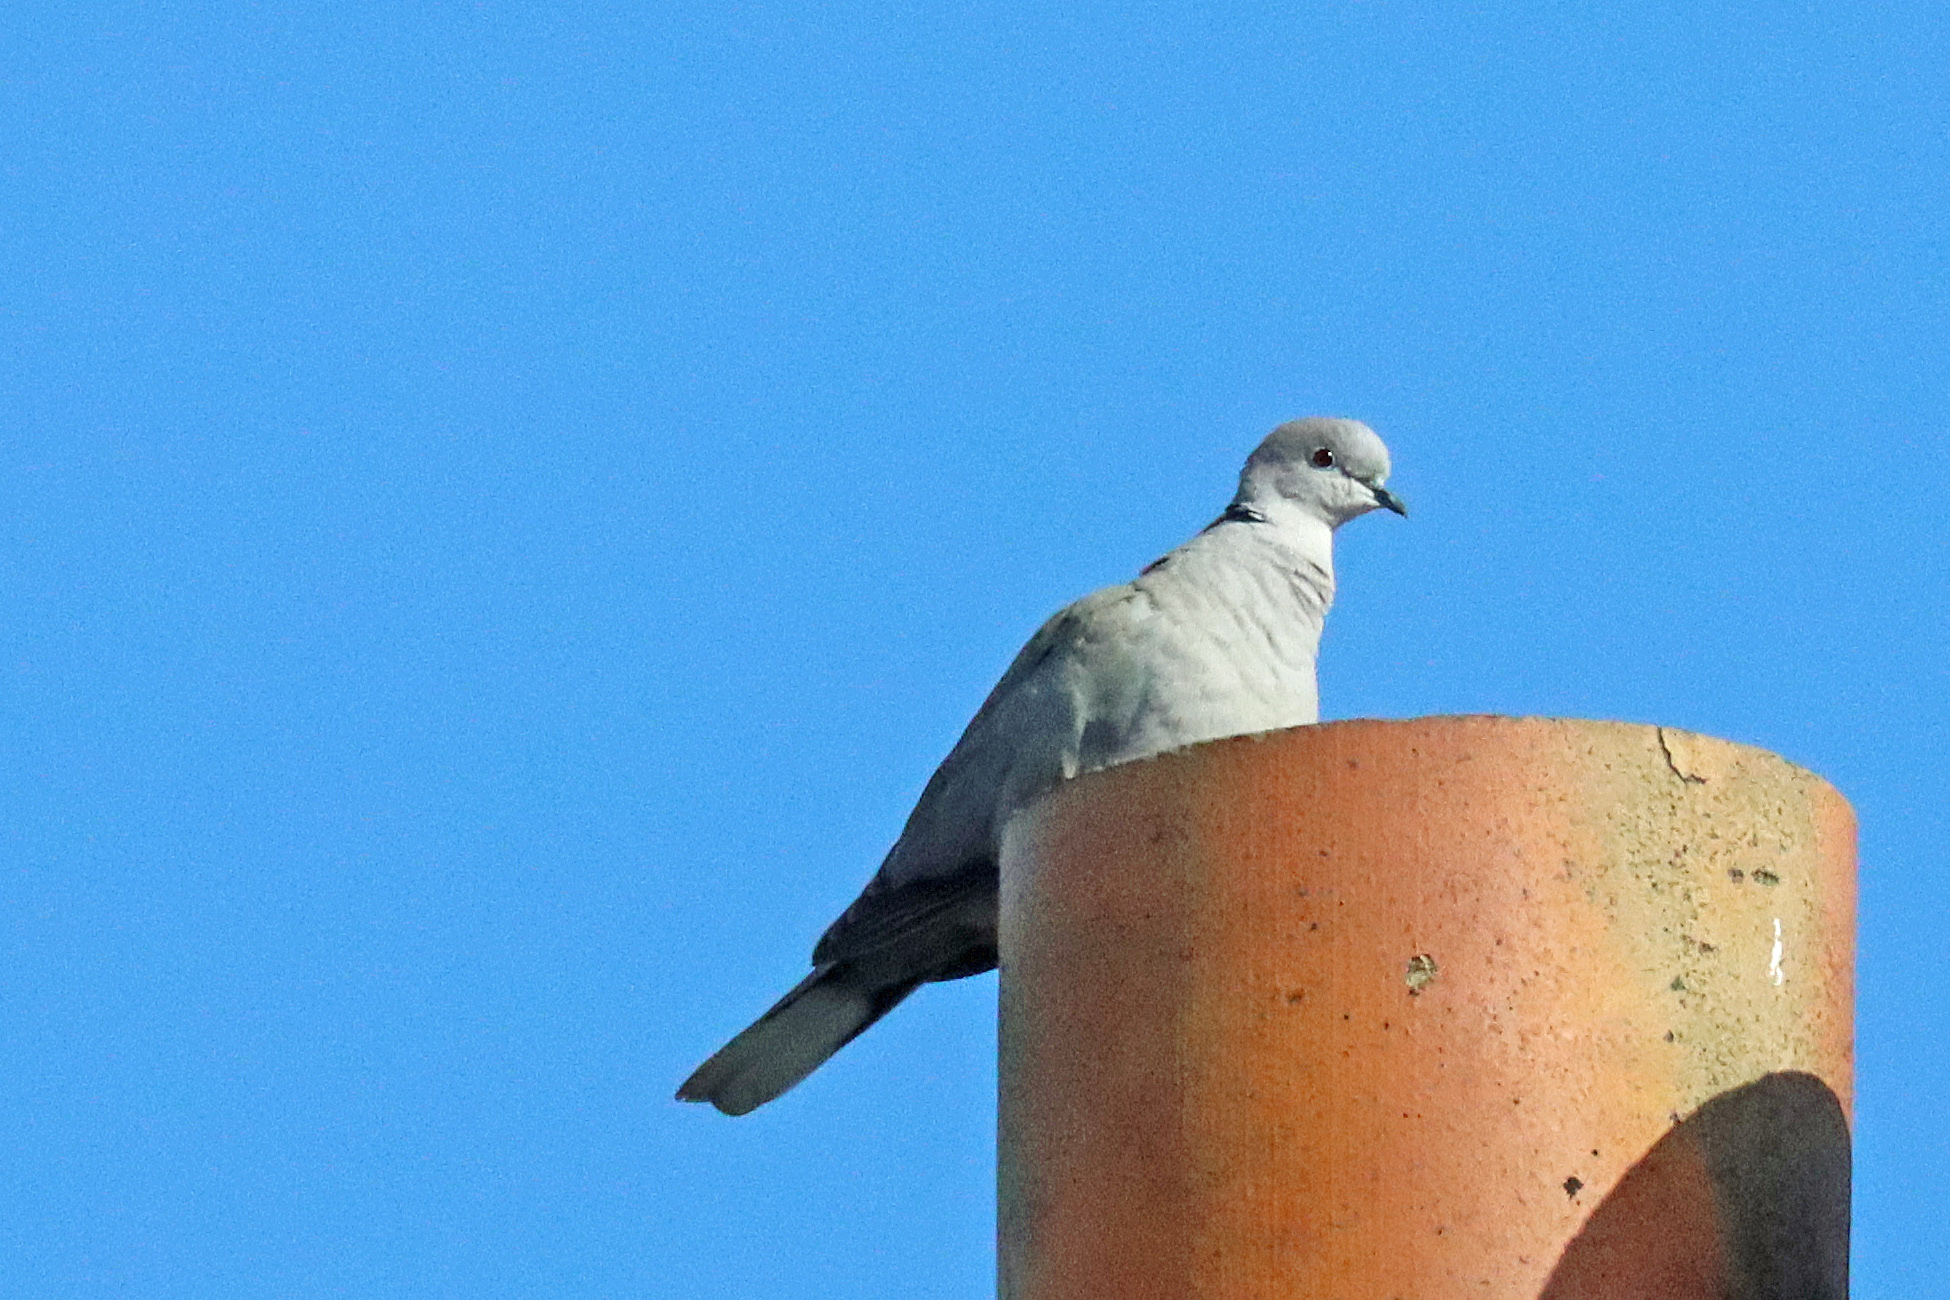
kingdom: Animalia
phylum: Chordata
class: Aves
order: Columbiformes
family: Columbidae
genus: Streptopelia
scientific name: Streptopelia decaocto
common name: Eurasian collared dove
